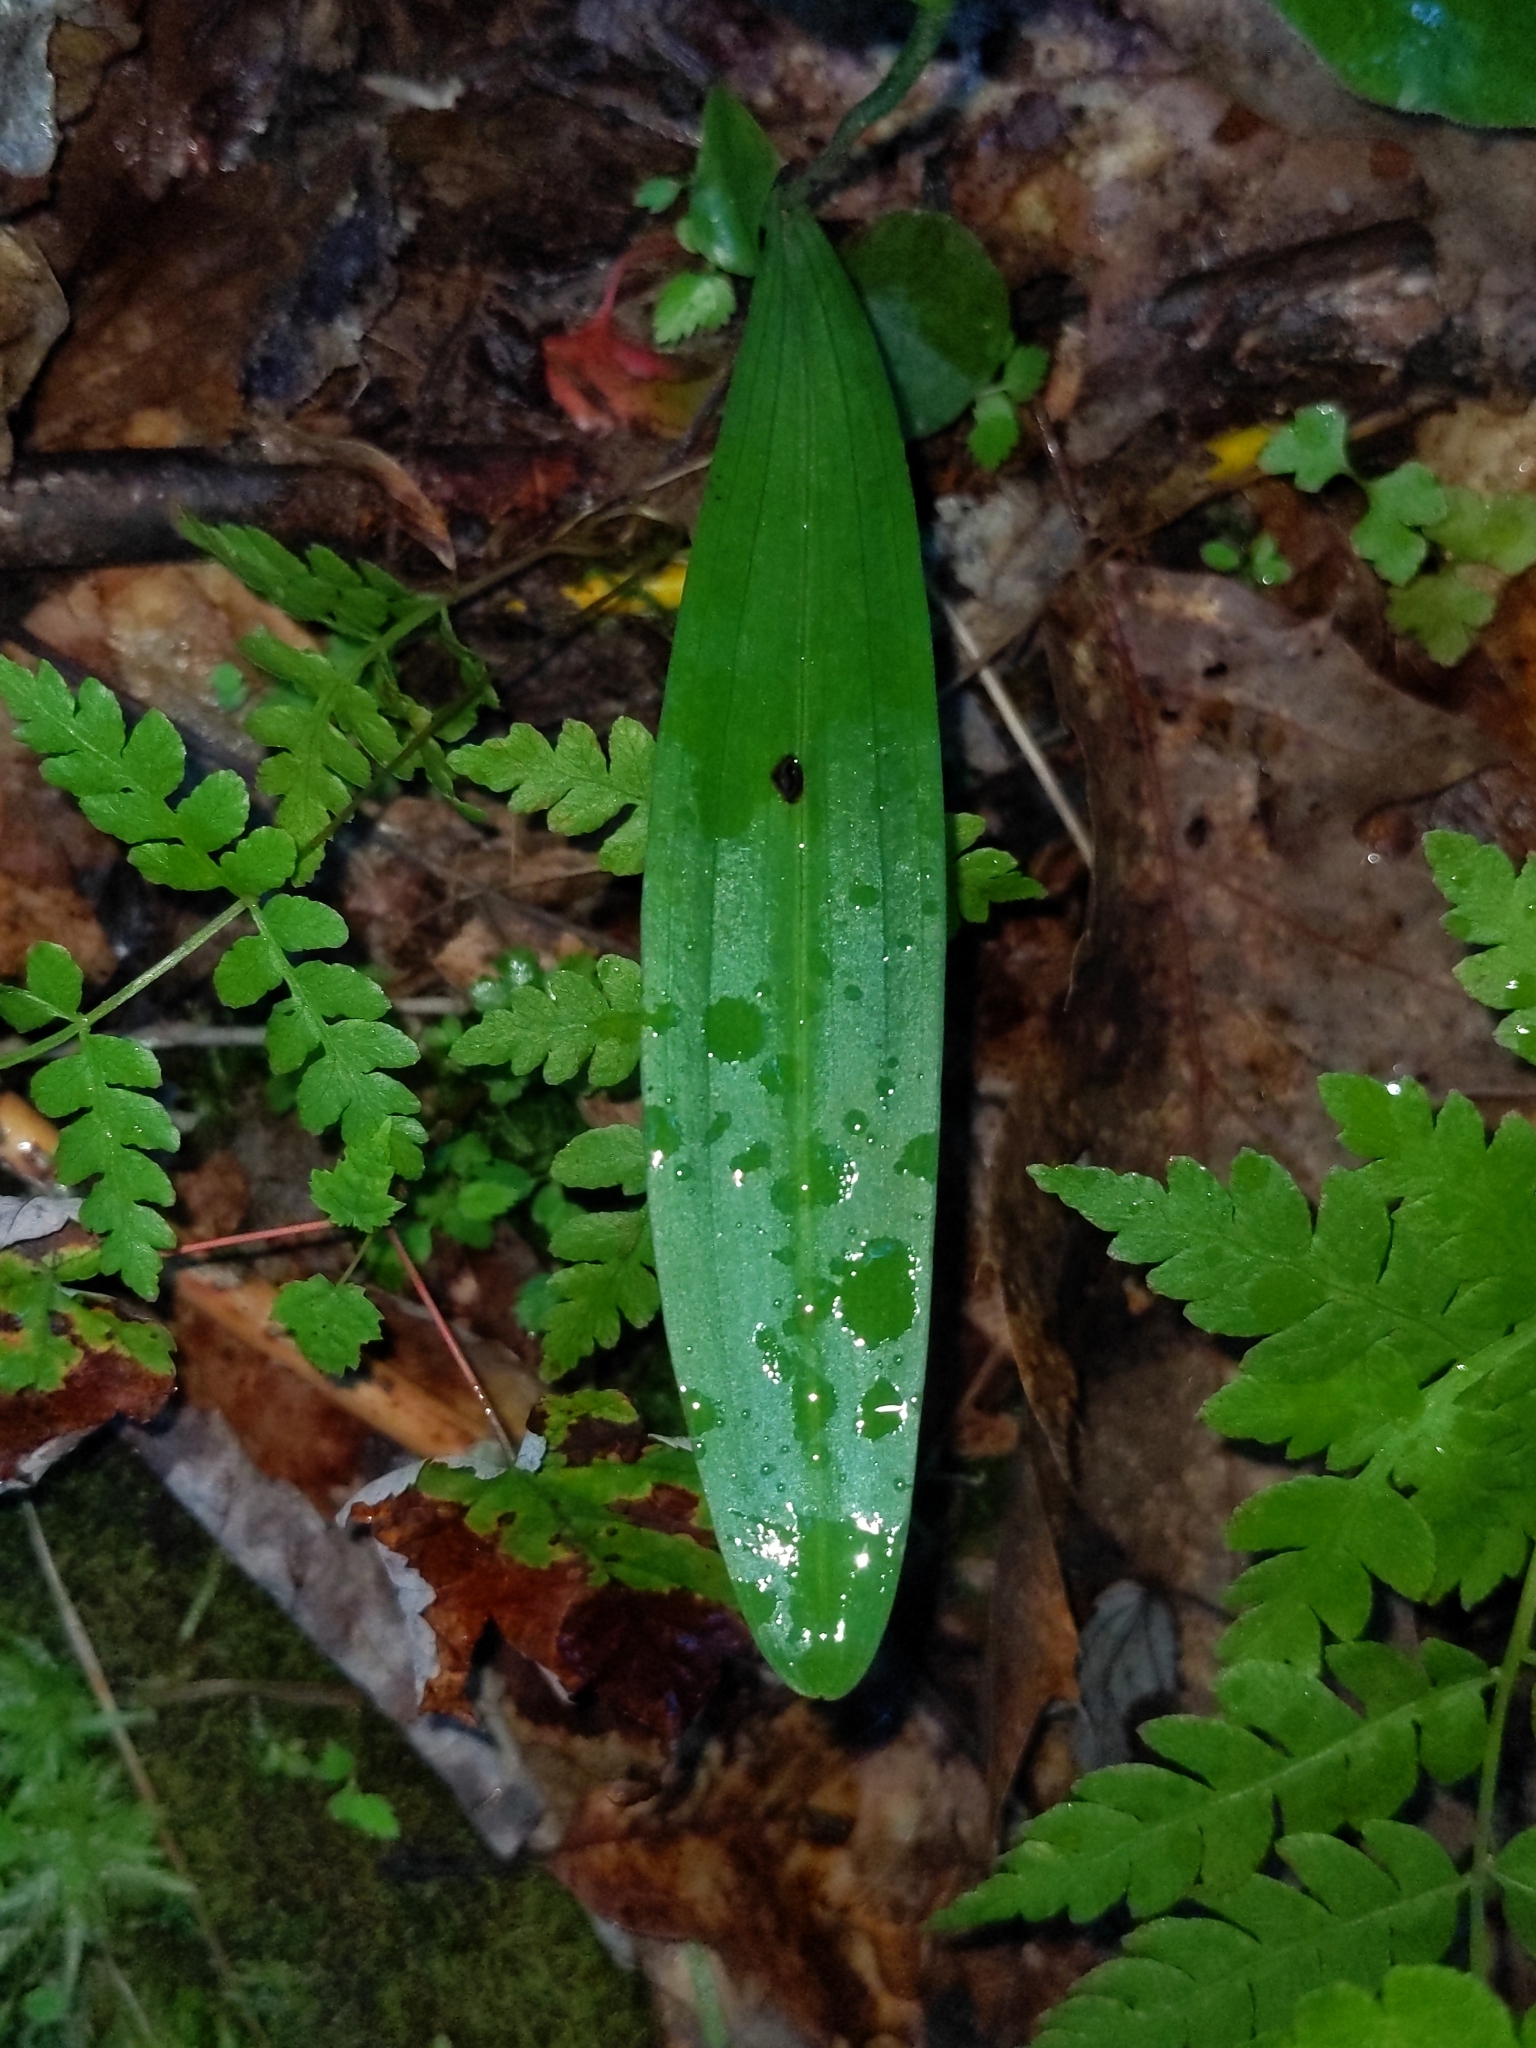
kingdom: Plantae
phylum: Tracheophyta
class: Liliopsida
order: Asparagales
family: Orchidaceae
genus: Platanthera
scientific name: Platanthera clavellata
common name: Club-spur orchid
